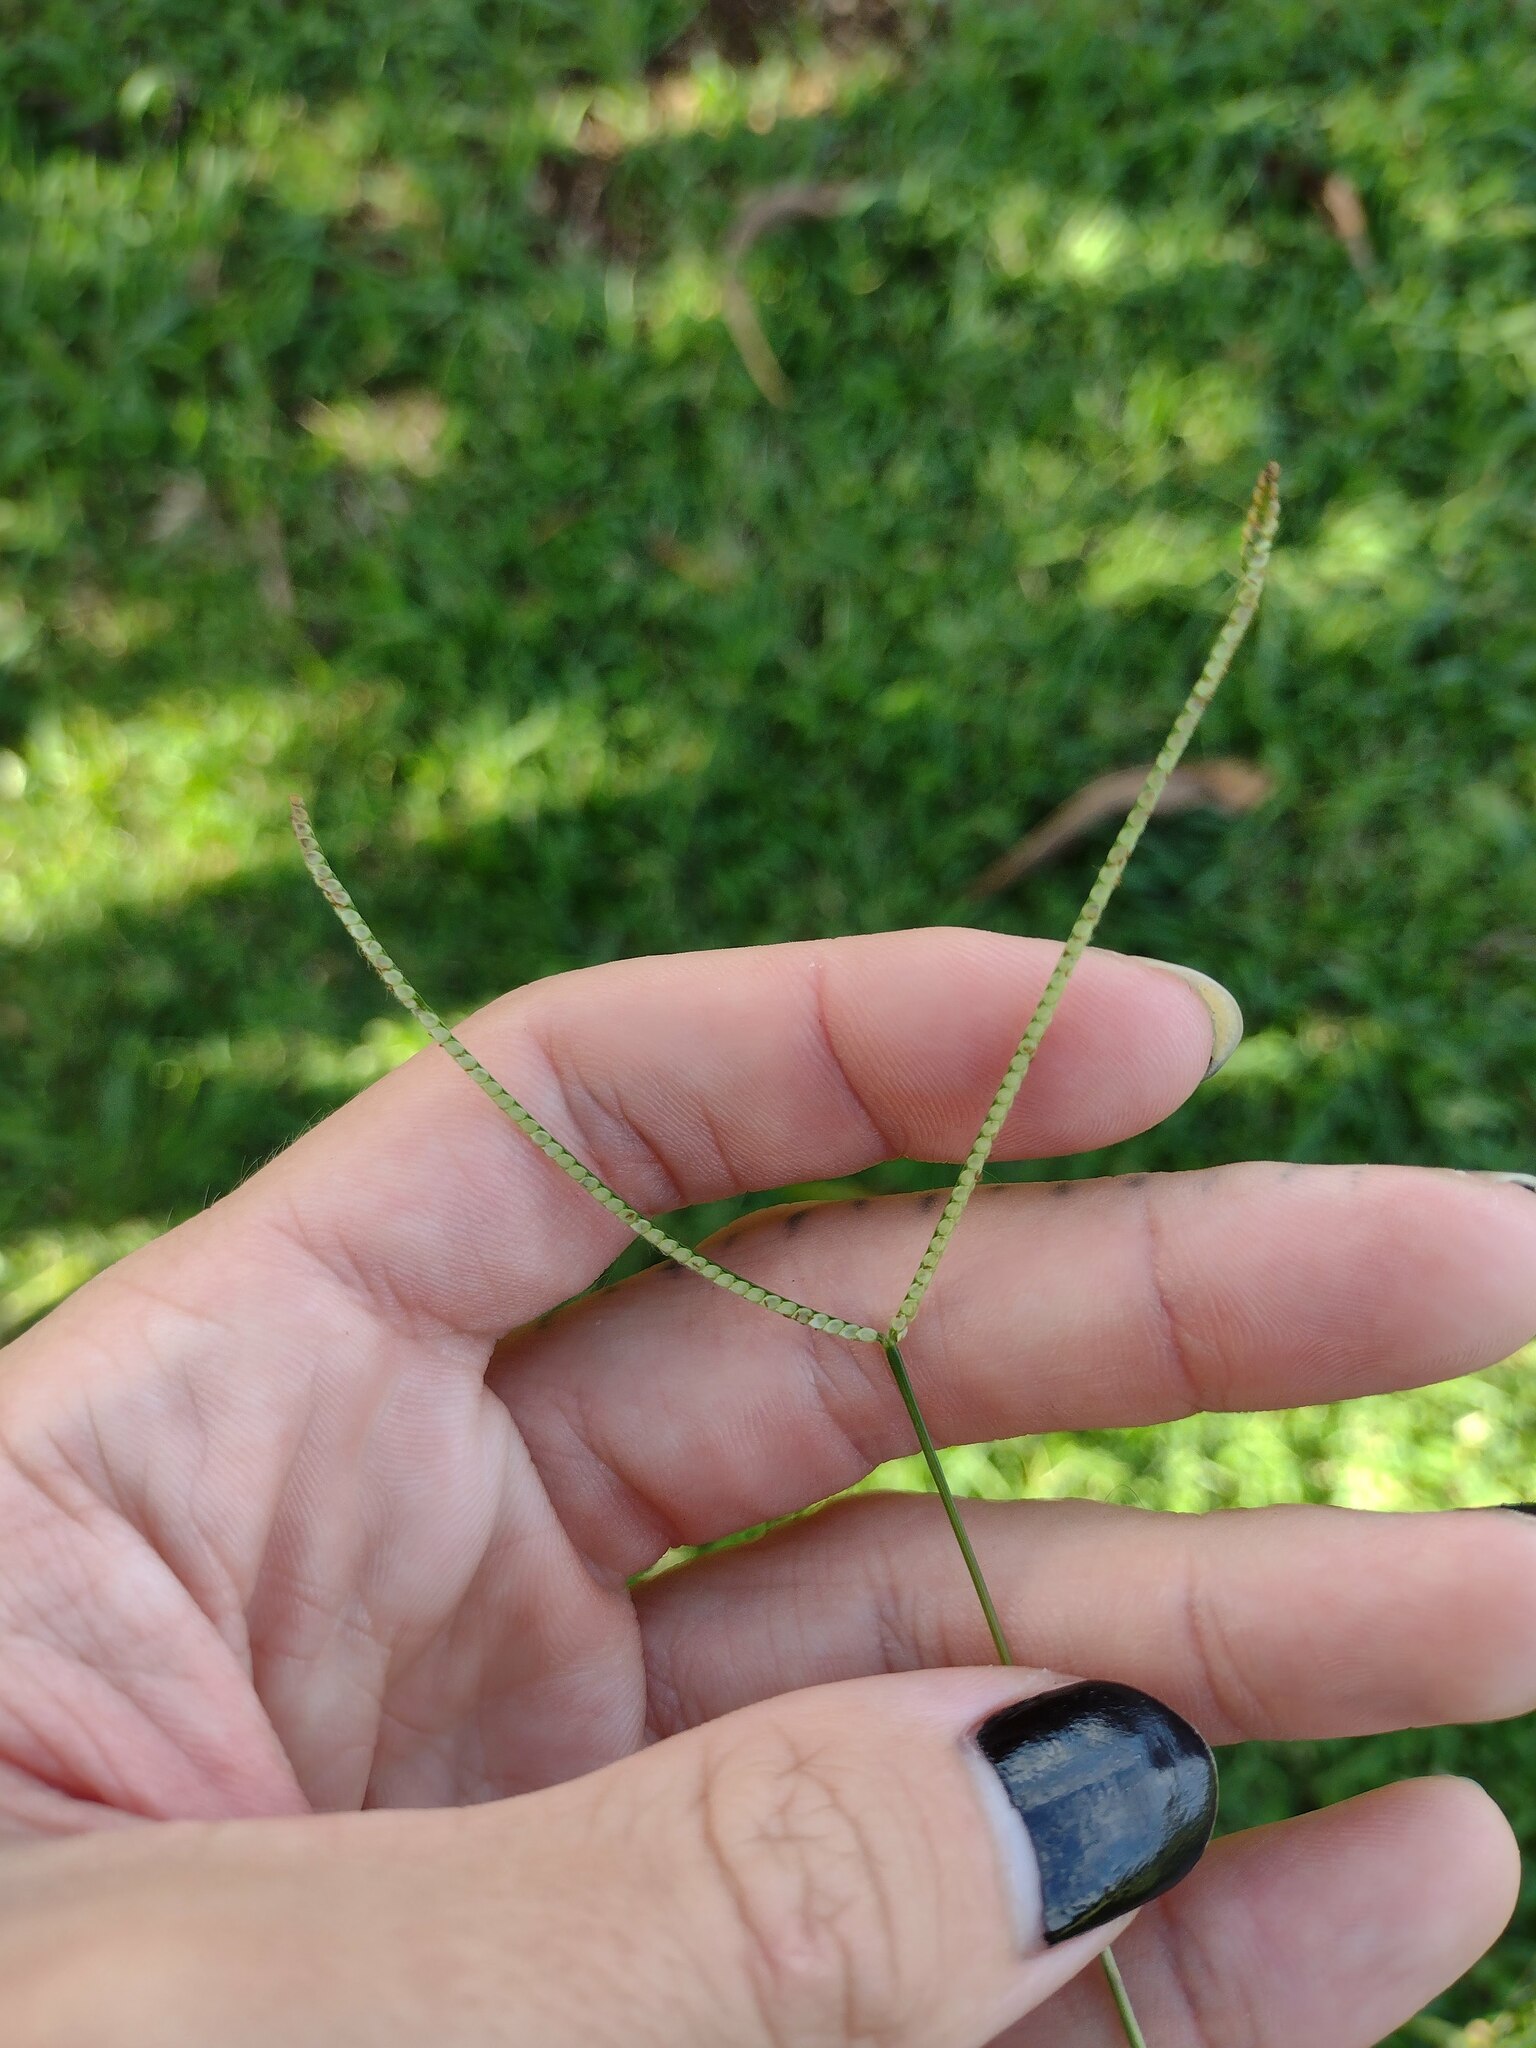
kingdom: Plantae
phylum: Tracheophyta
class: Liliopsida
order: Poales
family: Poaceae
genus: Paspalum
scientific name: Paspalum conjugatum
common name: Hilograss
